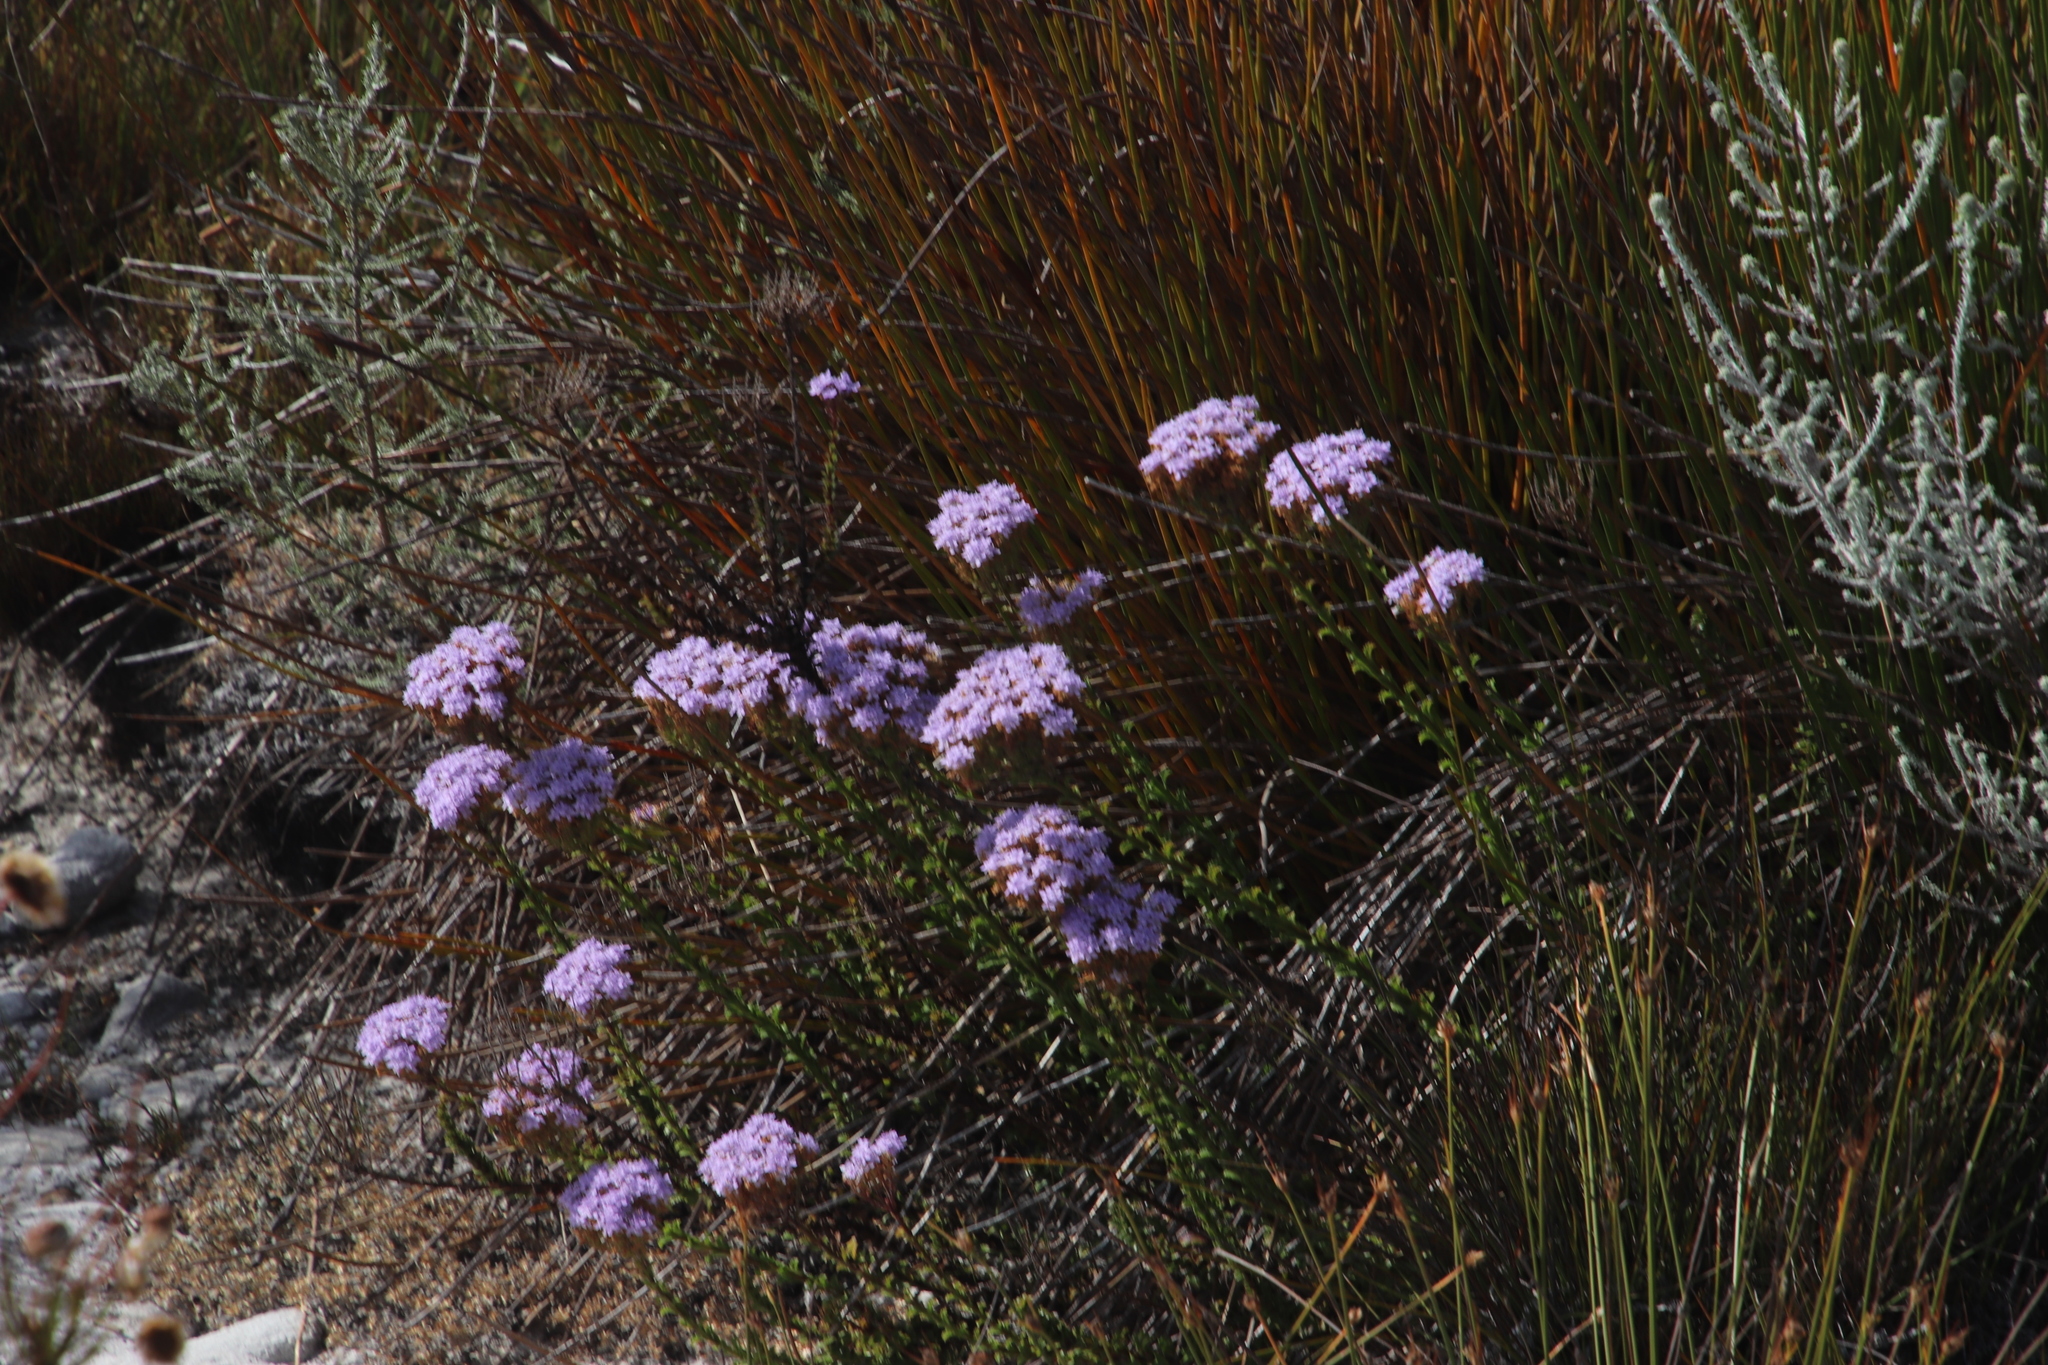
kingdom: Plantae
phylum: Tracheophyta
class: Magnoliopsida
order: Lamiales
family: Scrophulariaceae
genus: Pseudoselago
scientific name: Pseudoselago serrata
